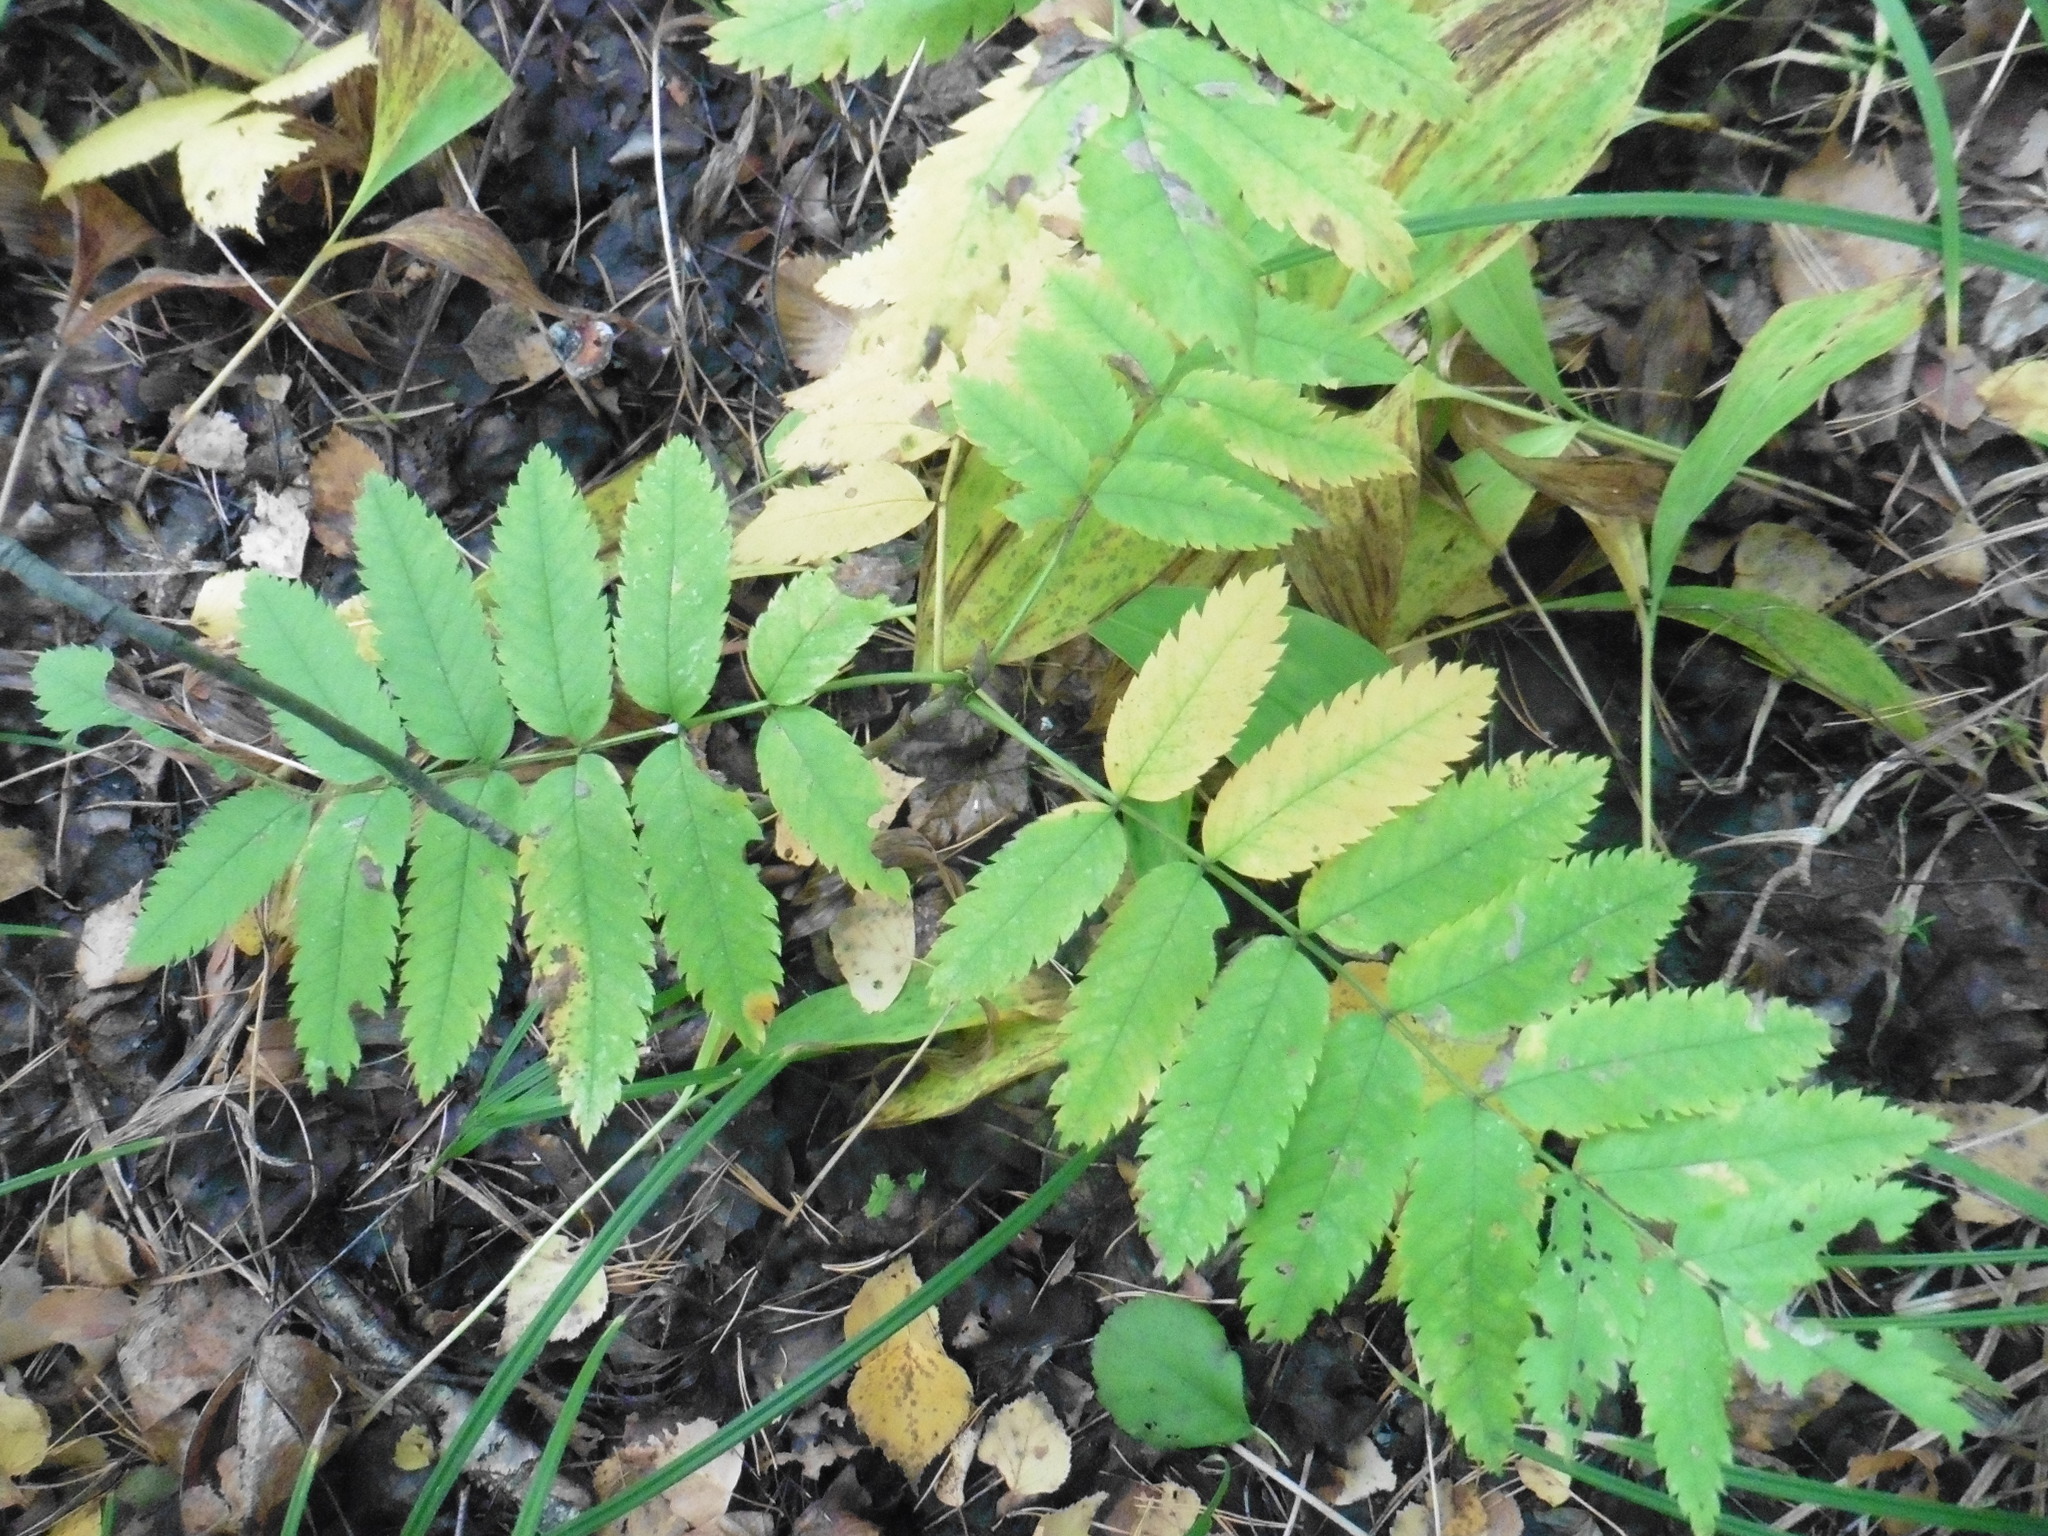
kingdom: Plantae
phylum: Tracheophyta
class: Magnoliopsida
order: Rosales
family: Rosaceae
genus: Sorbus
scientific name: Sorbus aucuparia
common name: Rowan
